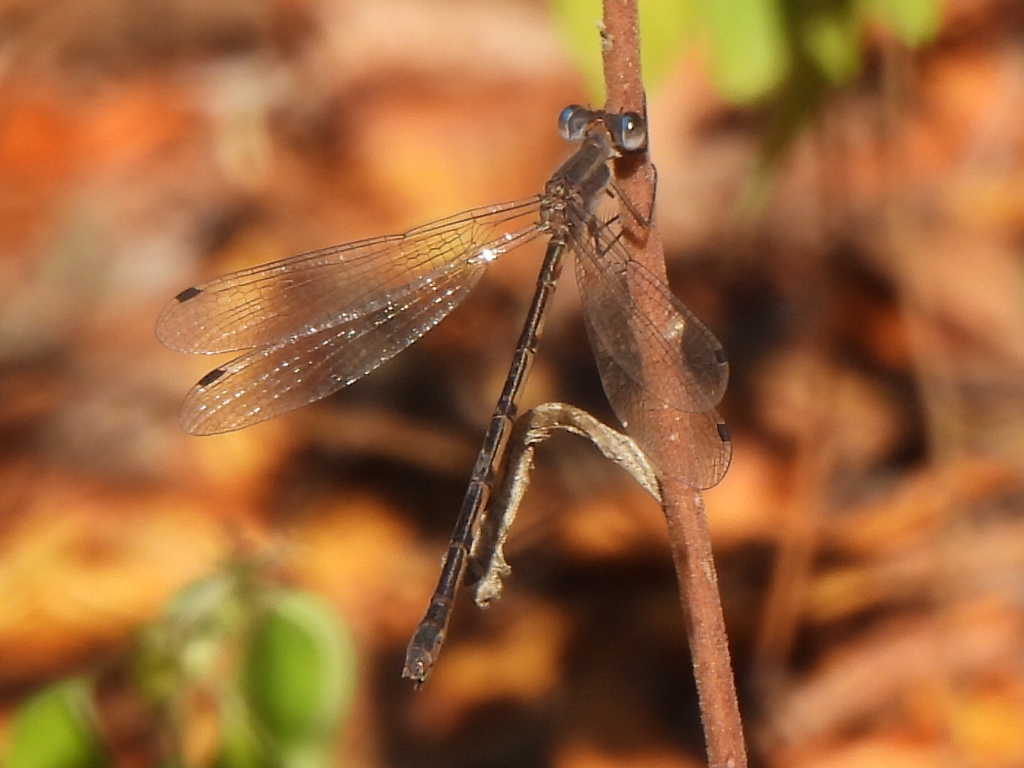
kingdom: Animalia
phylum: Arthropoda
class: Insecta
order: Odonata
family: Lestidae
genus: Lestes
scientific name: Lestes australis
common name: Southern spreadwing
